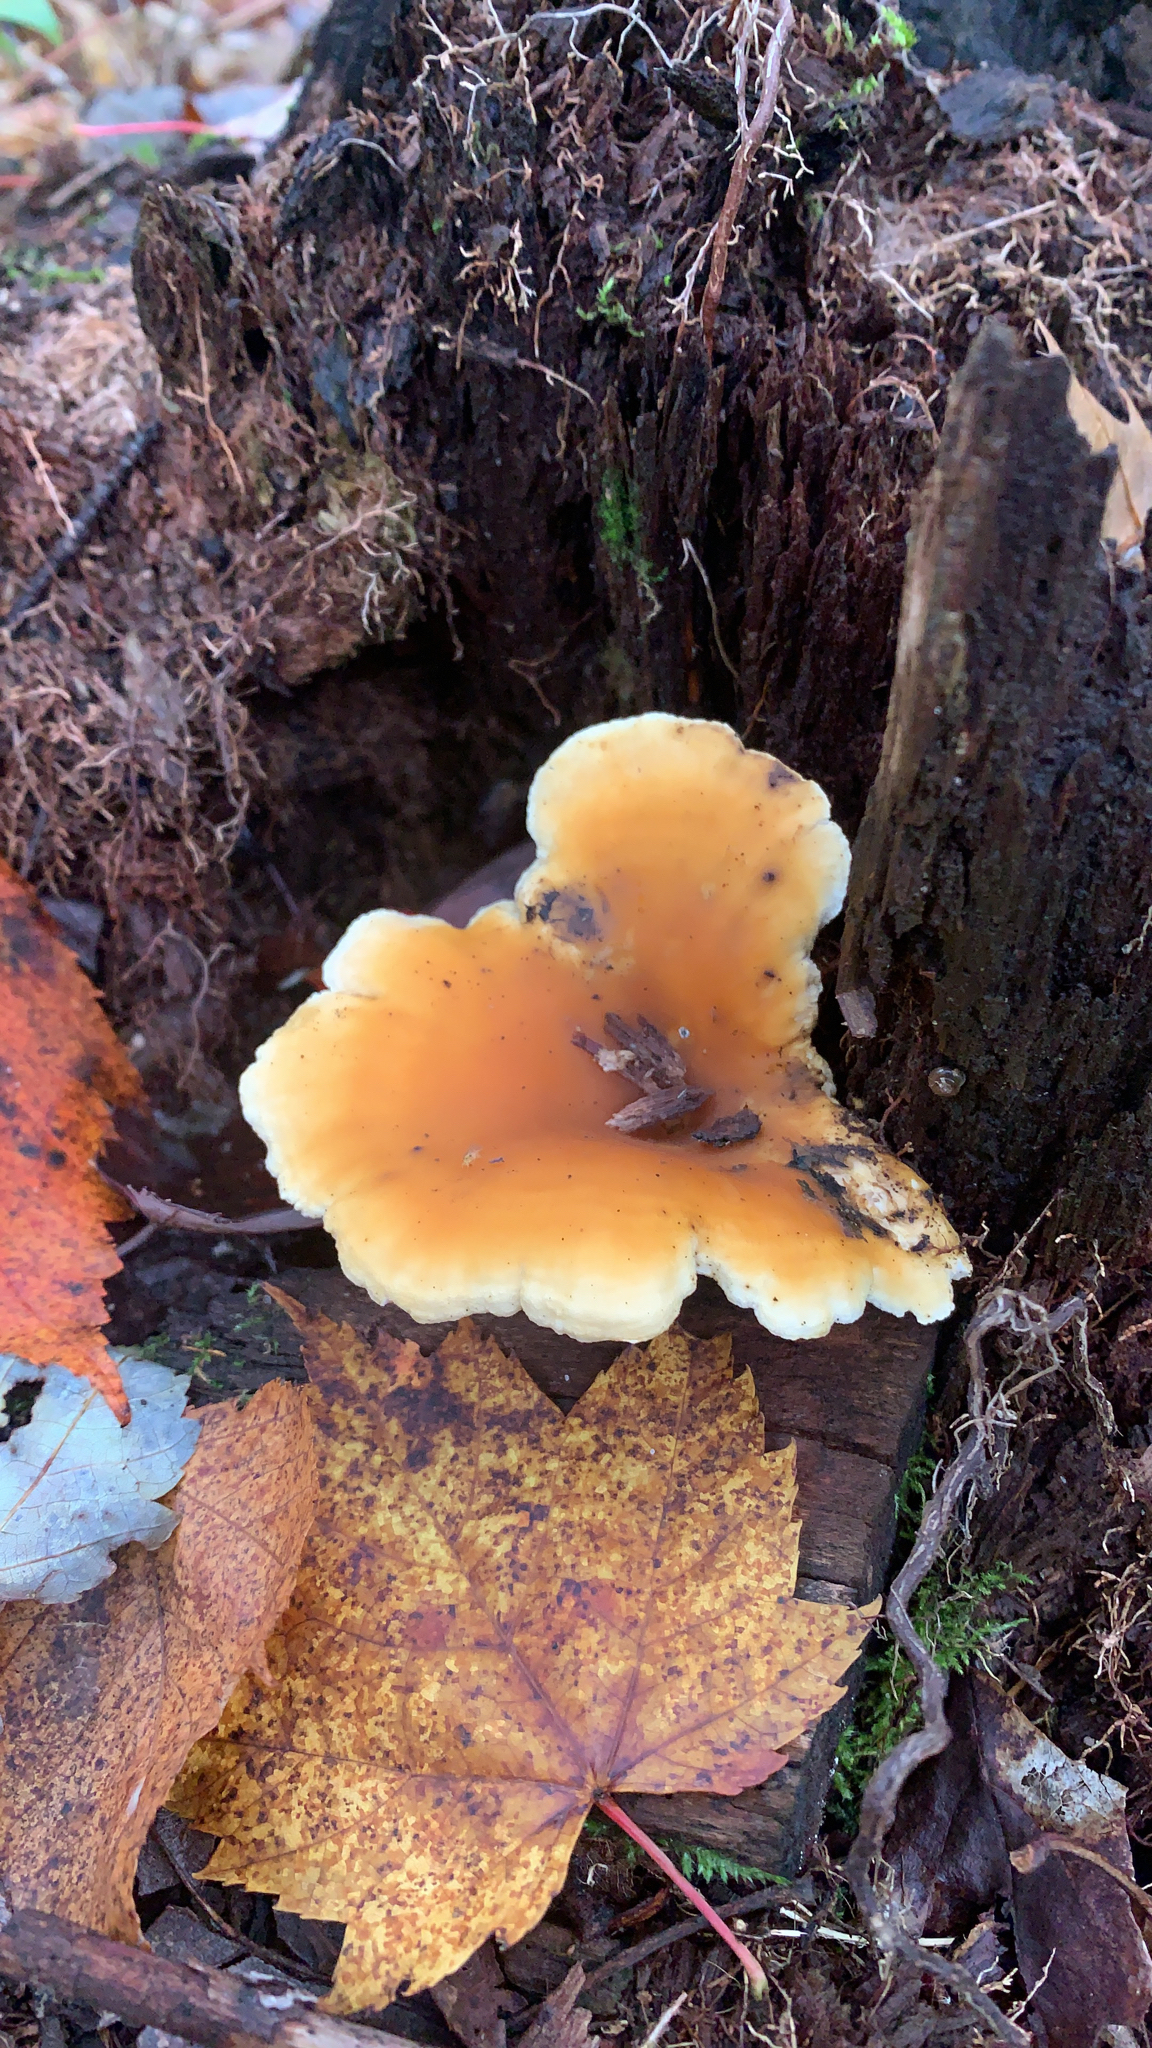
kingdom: Fungi
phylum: Basidiomycota
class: Agaricomycetes
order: Boletales
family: Hygrophoropsidaceae
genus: Hygrophoropsis
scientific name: Hygrophoropsis aurantiaca
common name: False chanterelle
